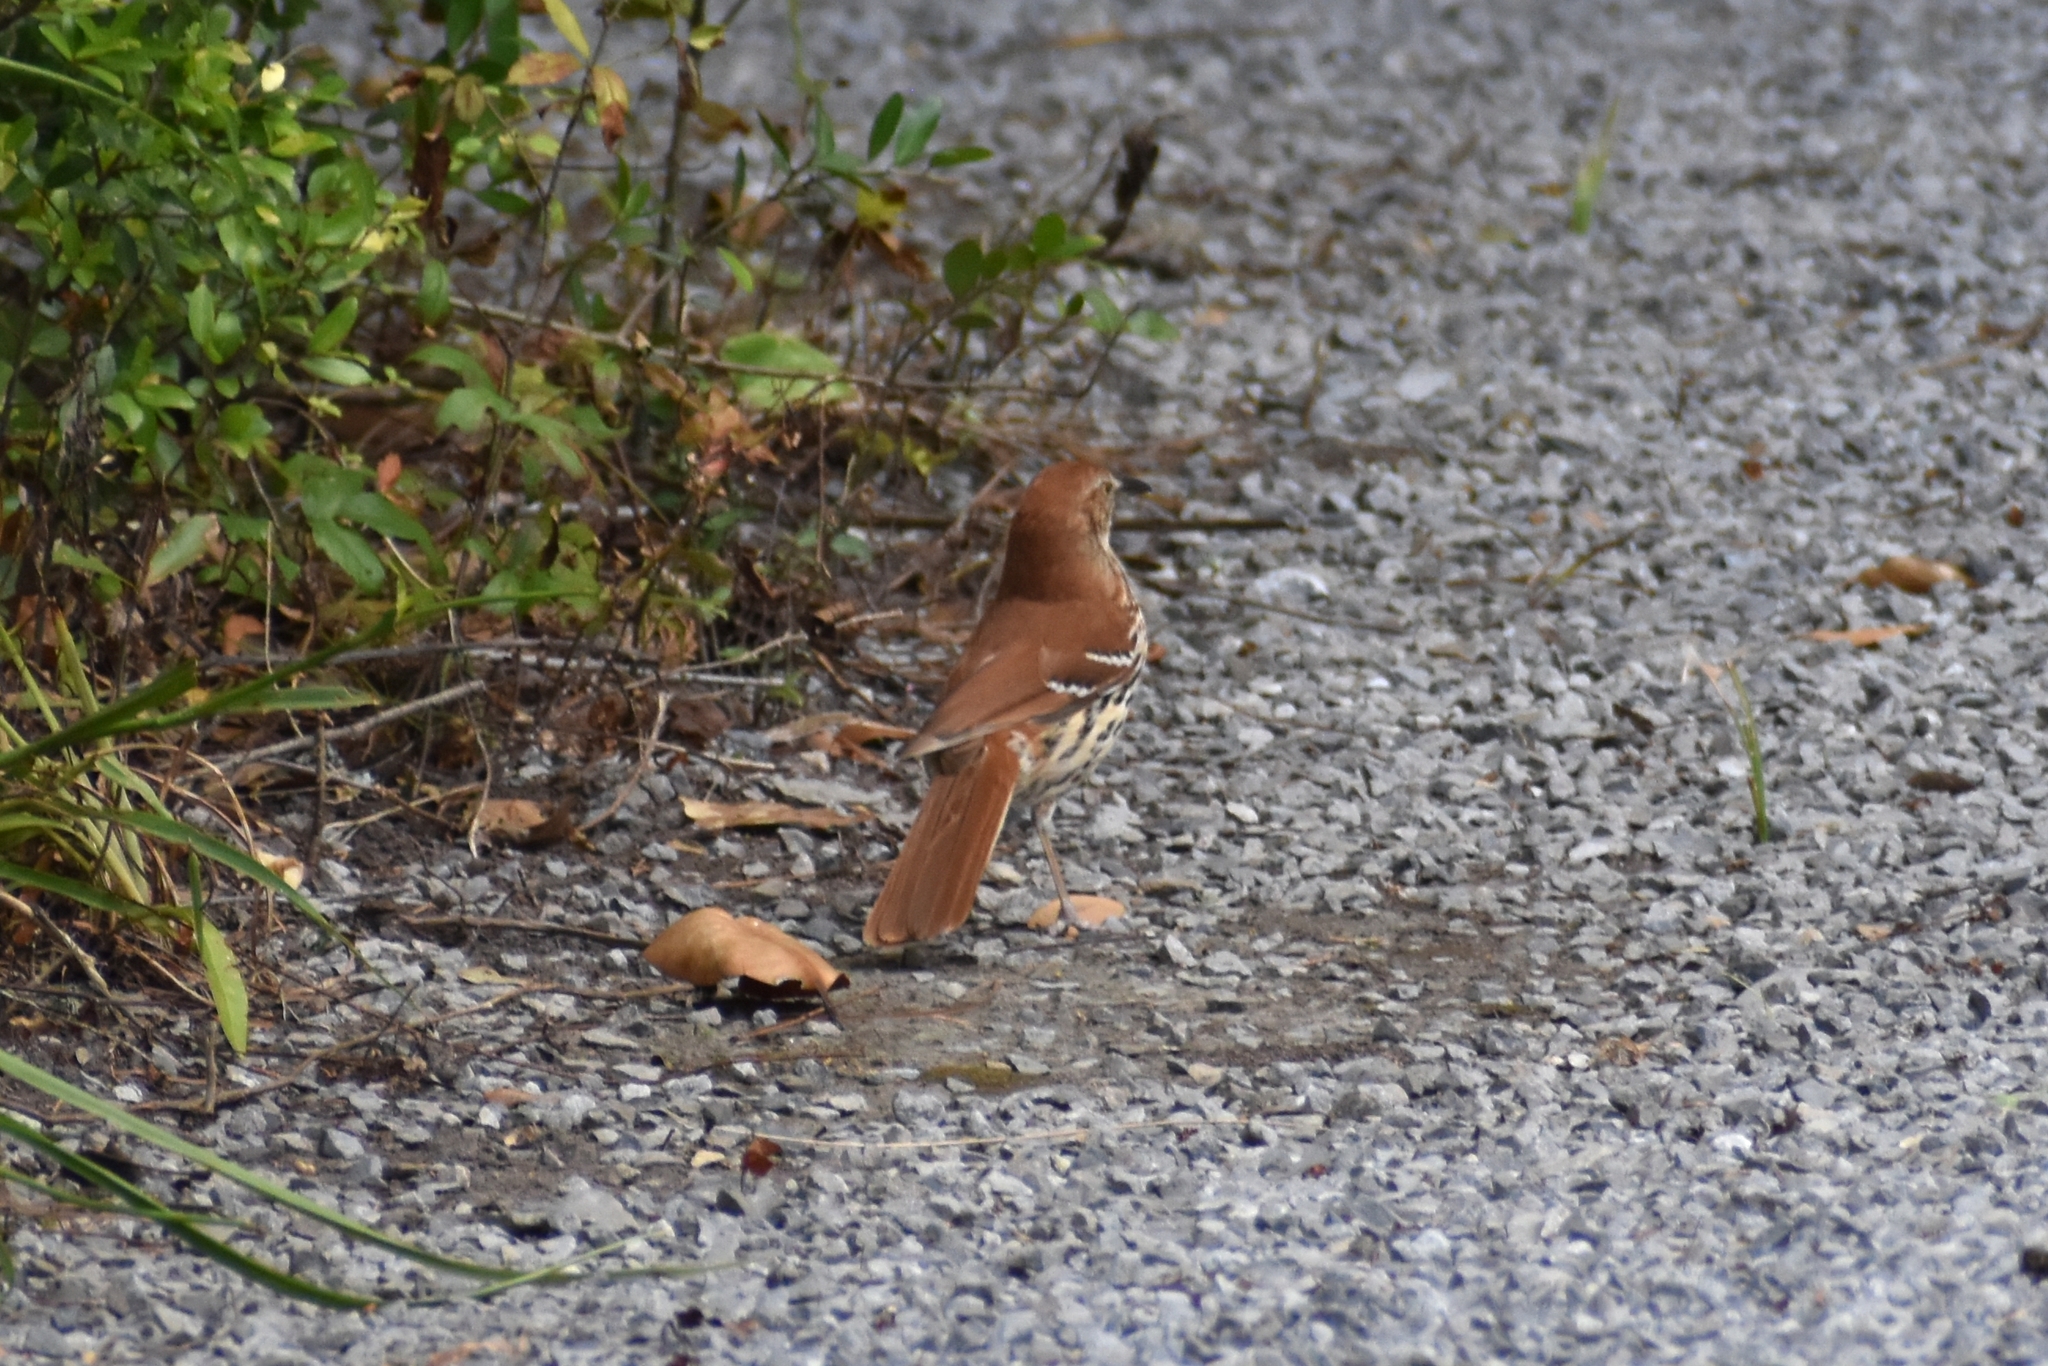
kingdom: Animalia
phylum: Chordata
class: Aves
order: Passeriformes
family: Mimidae
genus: Toxostoma
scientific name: Toxostoma rufum
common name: Brown thrasher
